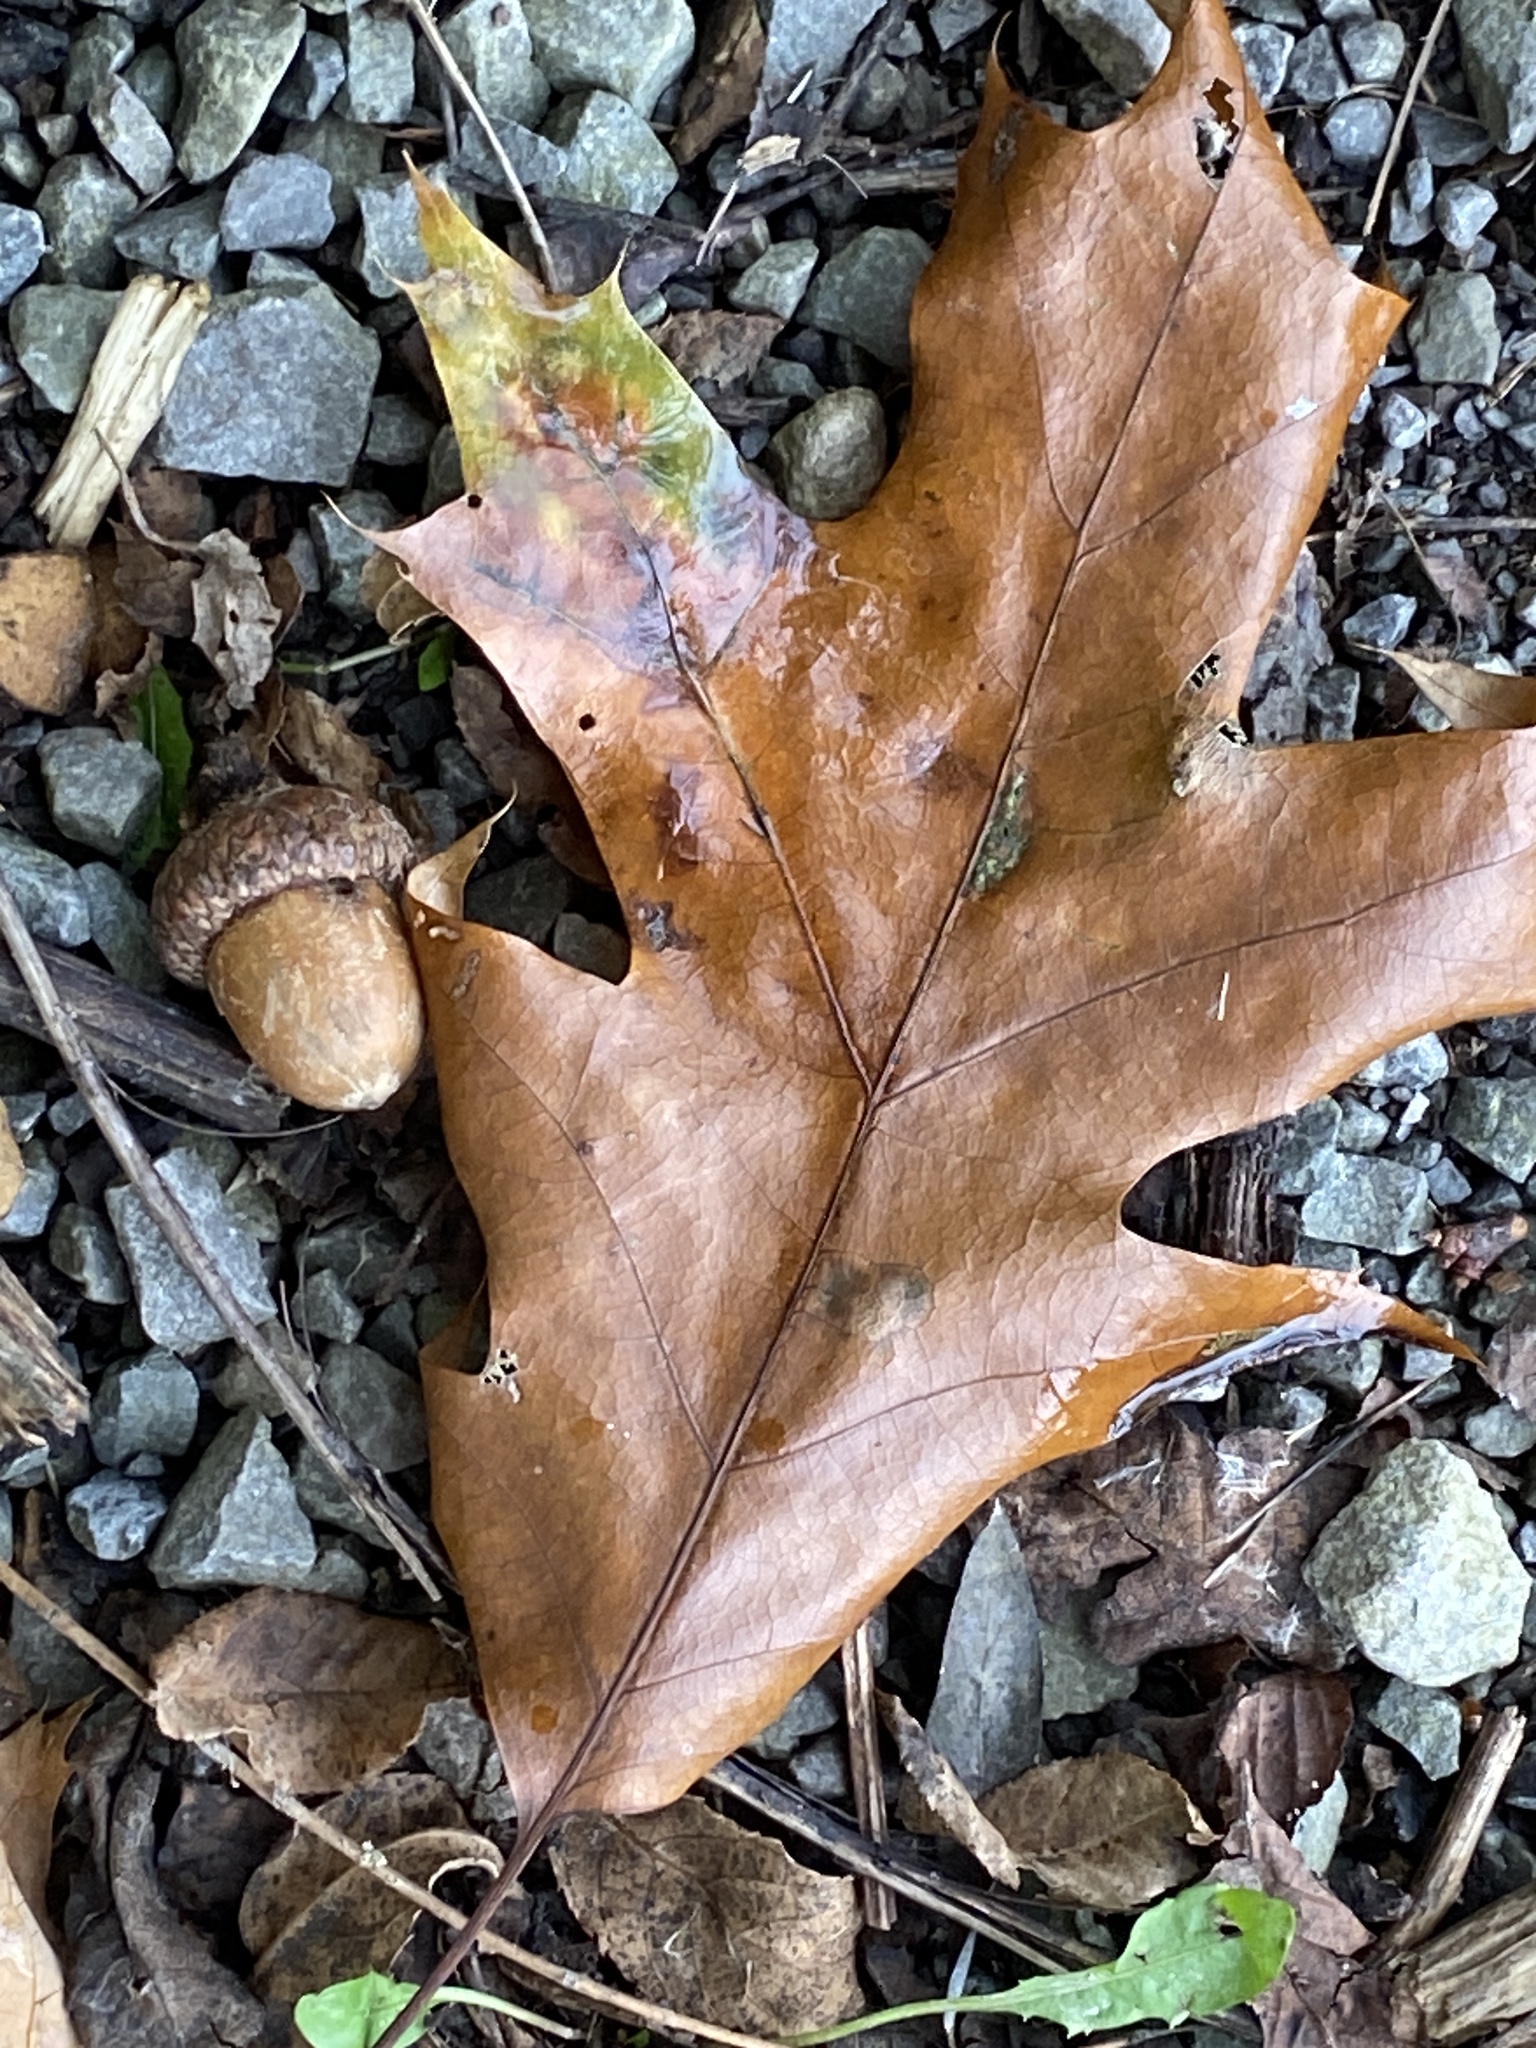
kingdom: Plantae
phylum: Tracheophyta
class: Magnoliopsida
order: Fagales
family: Fagaceae
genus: Quercus
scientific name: Quercus rubra
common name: Red oak
